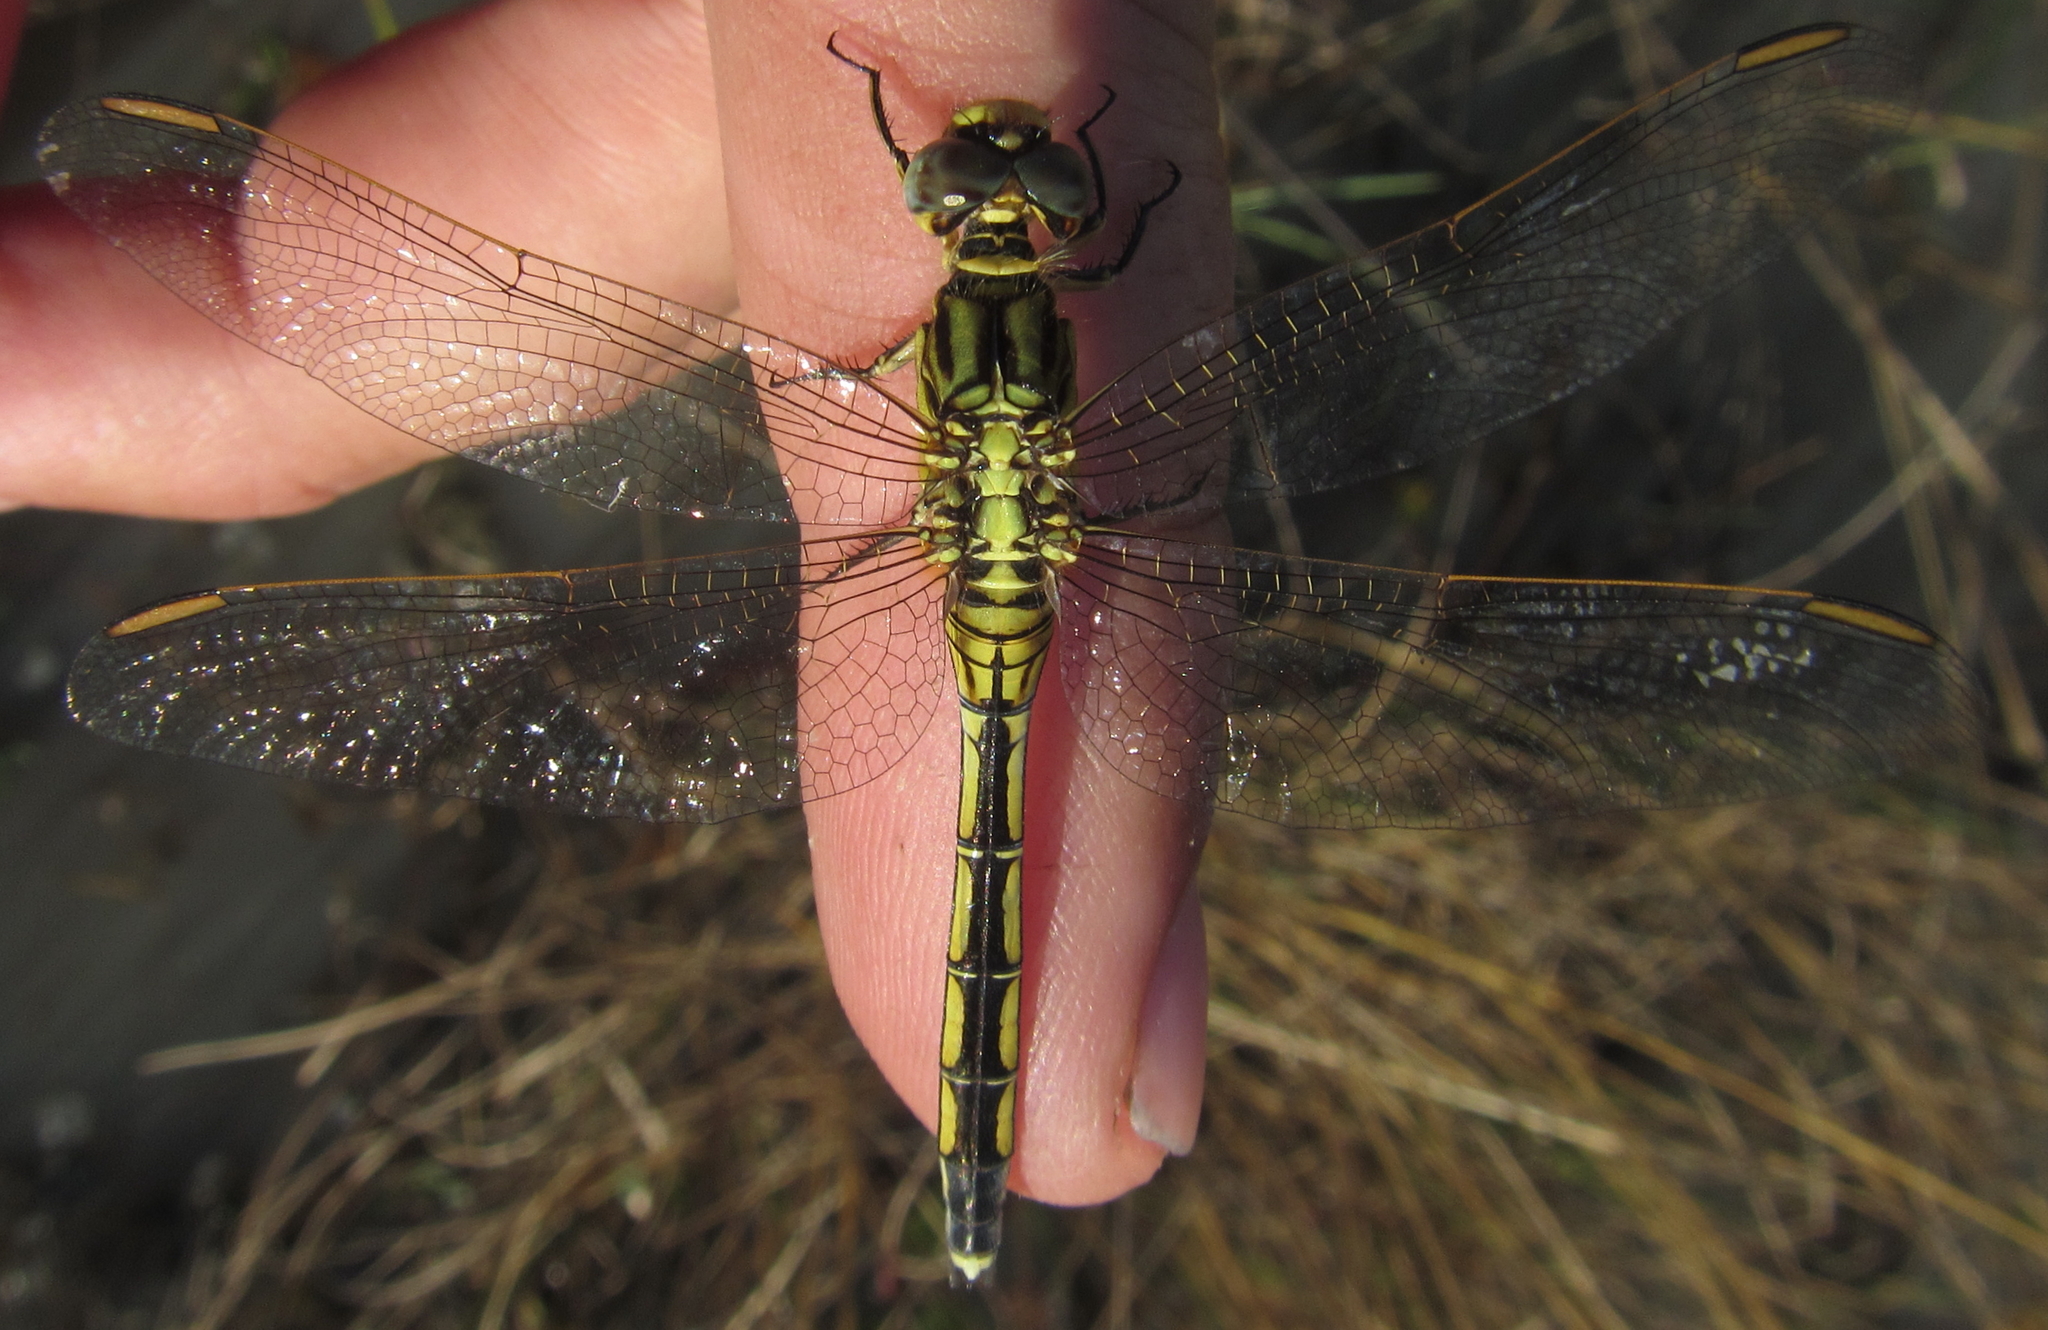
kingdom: Animalia
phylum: Arthropoda
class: Insecta
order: Odonata
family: Libellulidae
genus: Orthetrum
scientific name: Orthetrum icteromelas
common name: Spectacled skimmer
